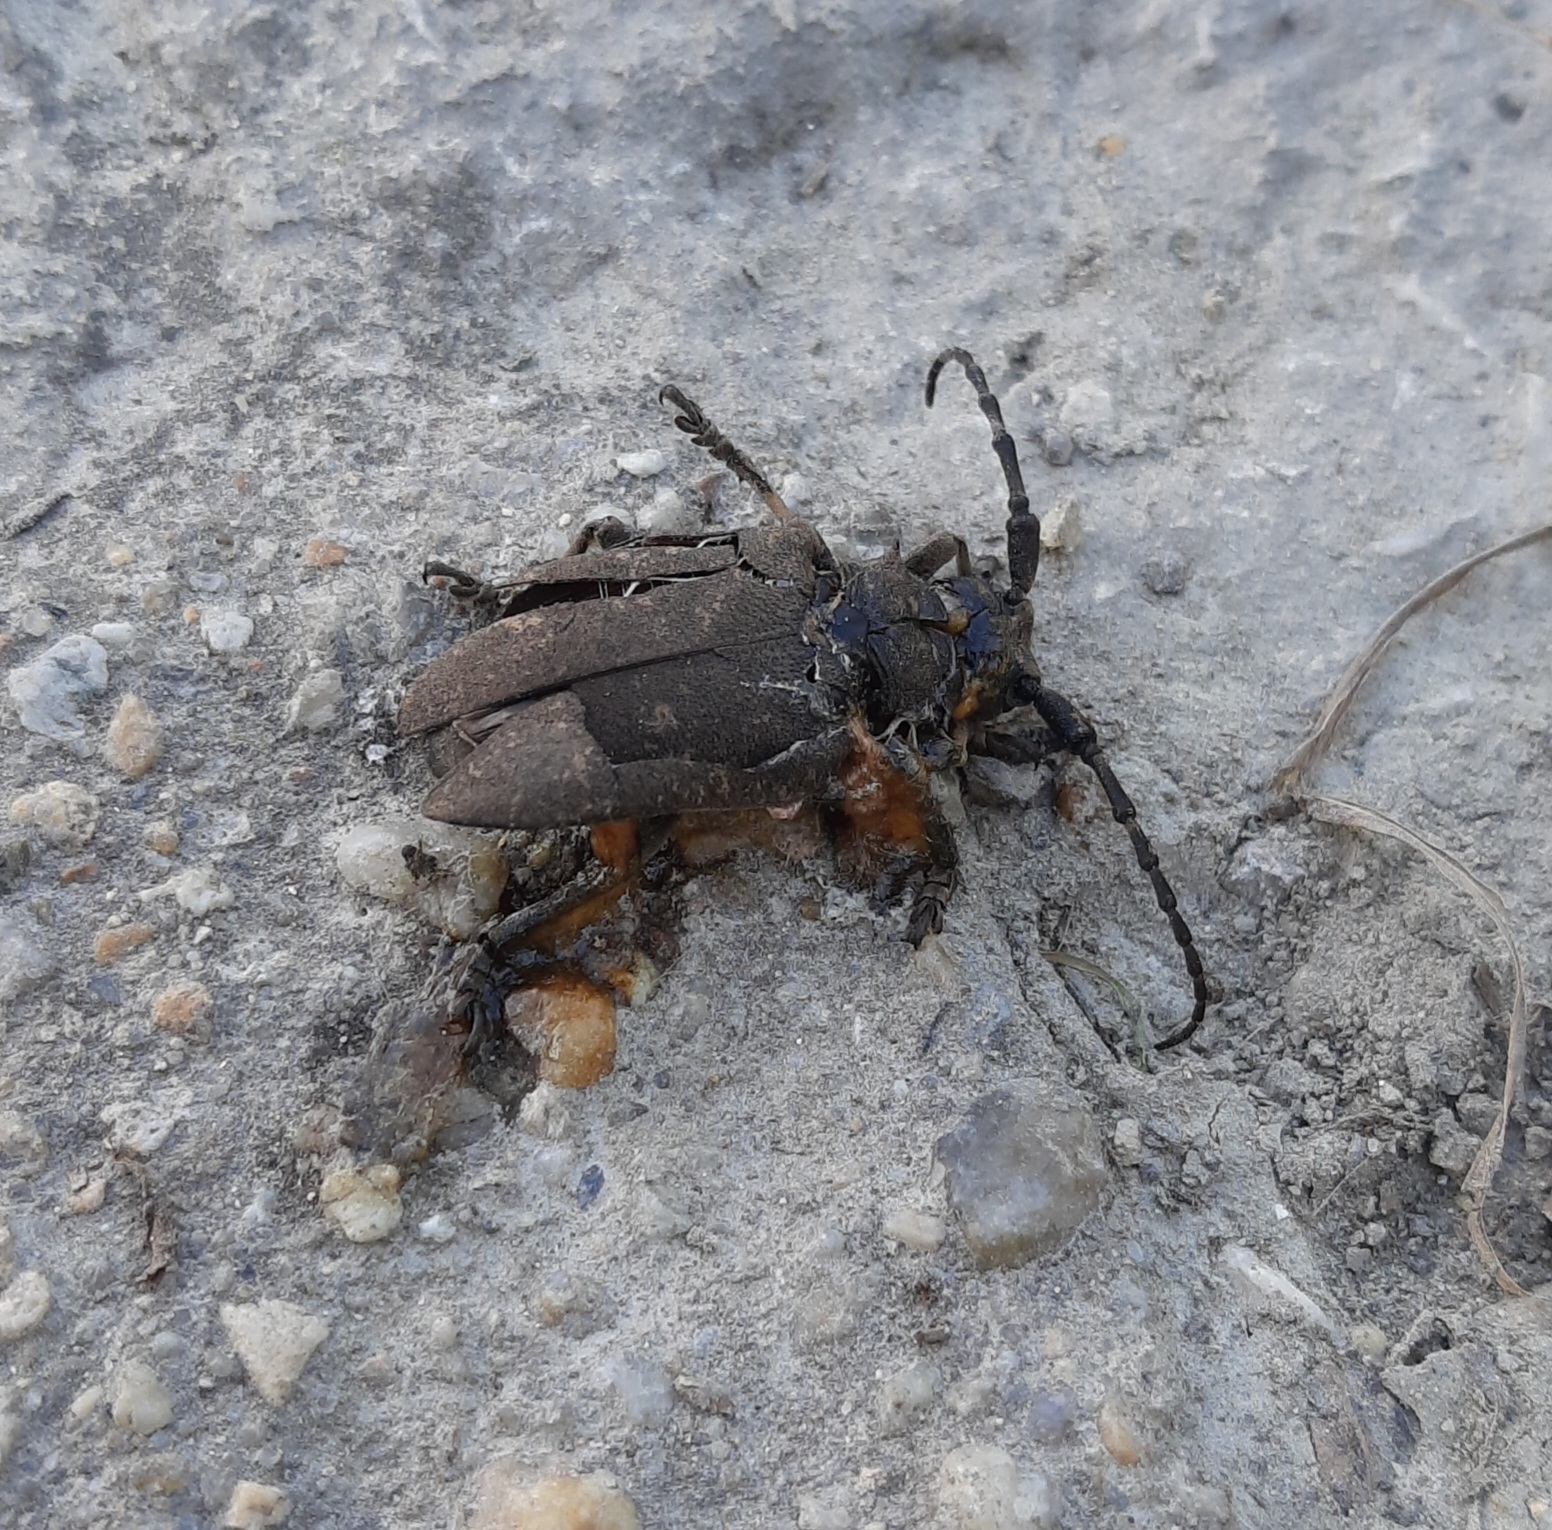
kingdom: Animalia
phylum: Arthropoda
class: Insecta
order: Coleoptera
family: Cerambycidae
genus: Lamia
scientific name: Lamia textor
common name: Weaver beetle
